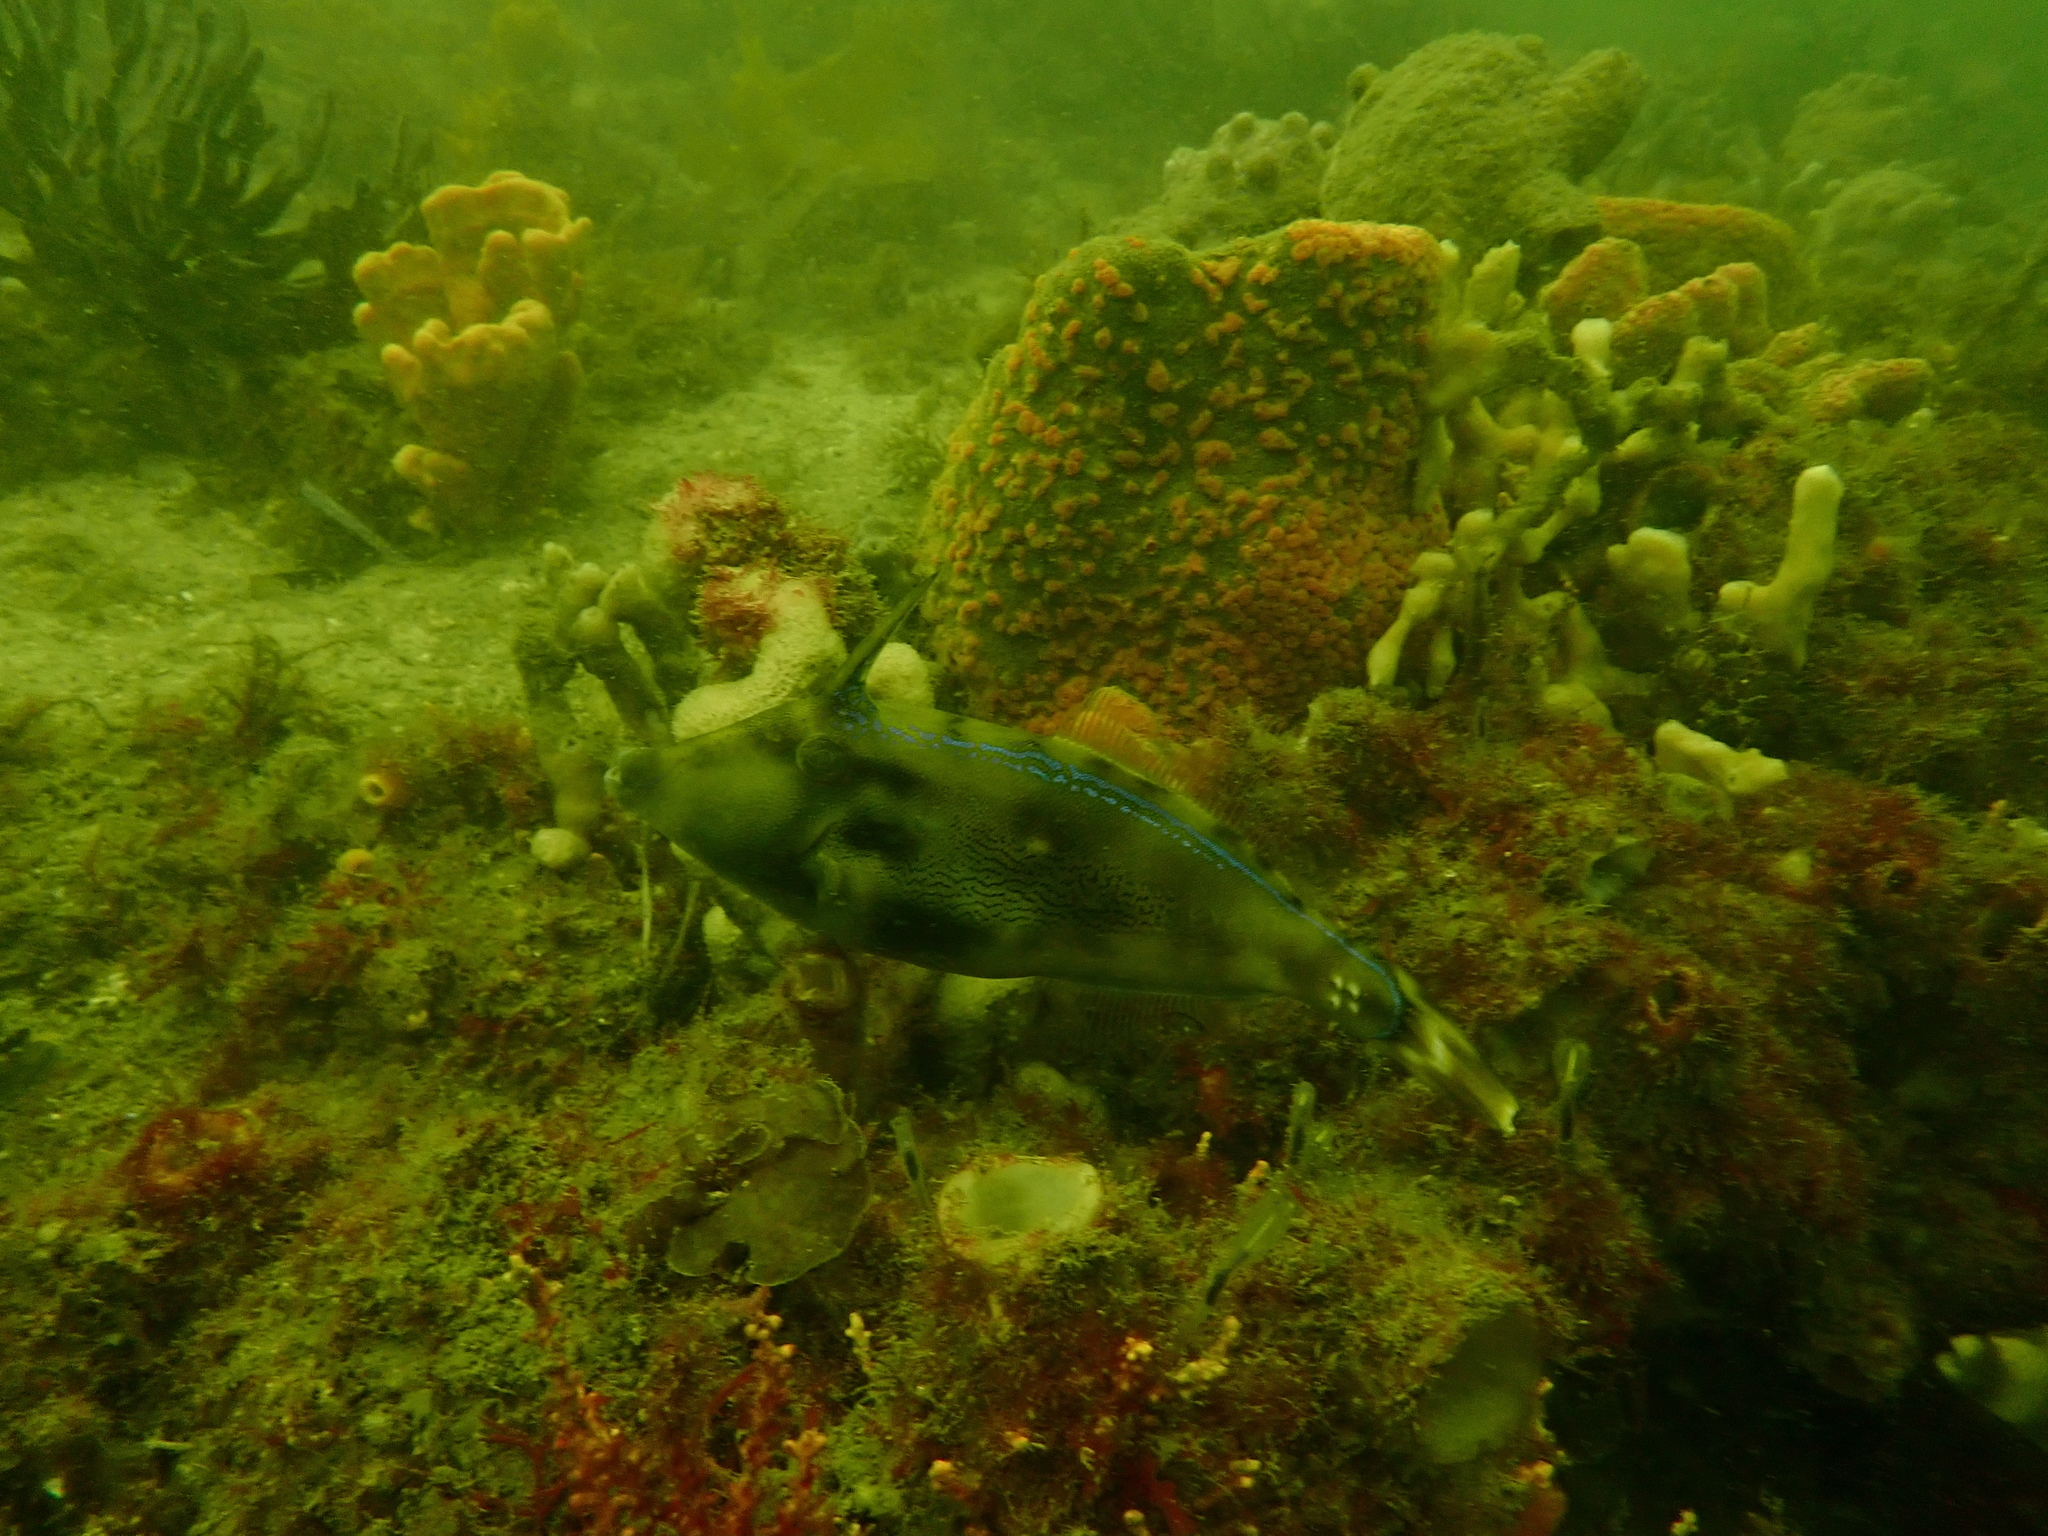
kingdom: Animalia
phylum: Chordata
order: Tetraodontiformes
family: Monacanthidae
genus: Meuschenia
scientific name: Meuschenia trachylepis
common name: Yellowfin leatherjacket
